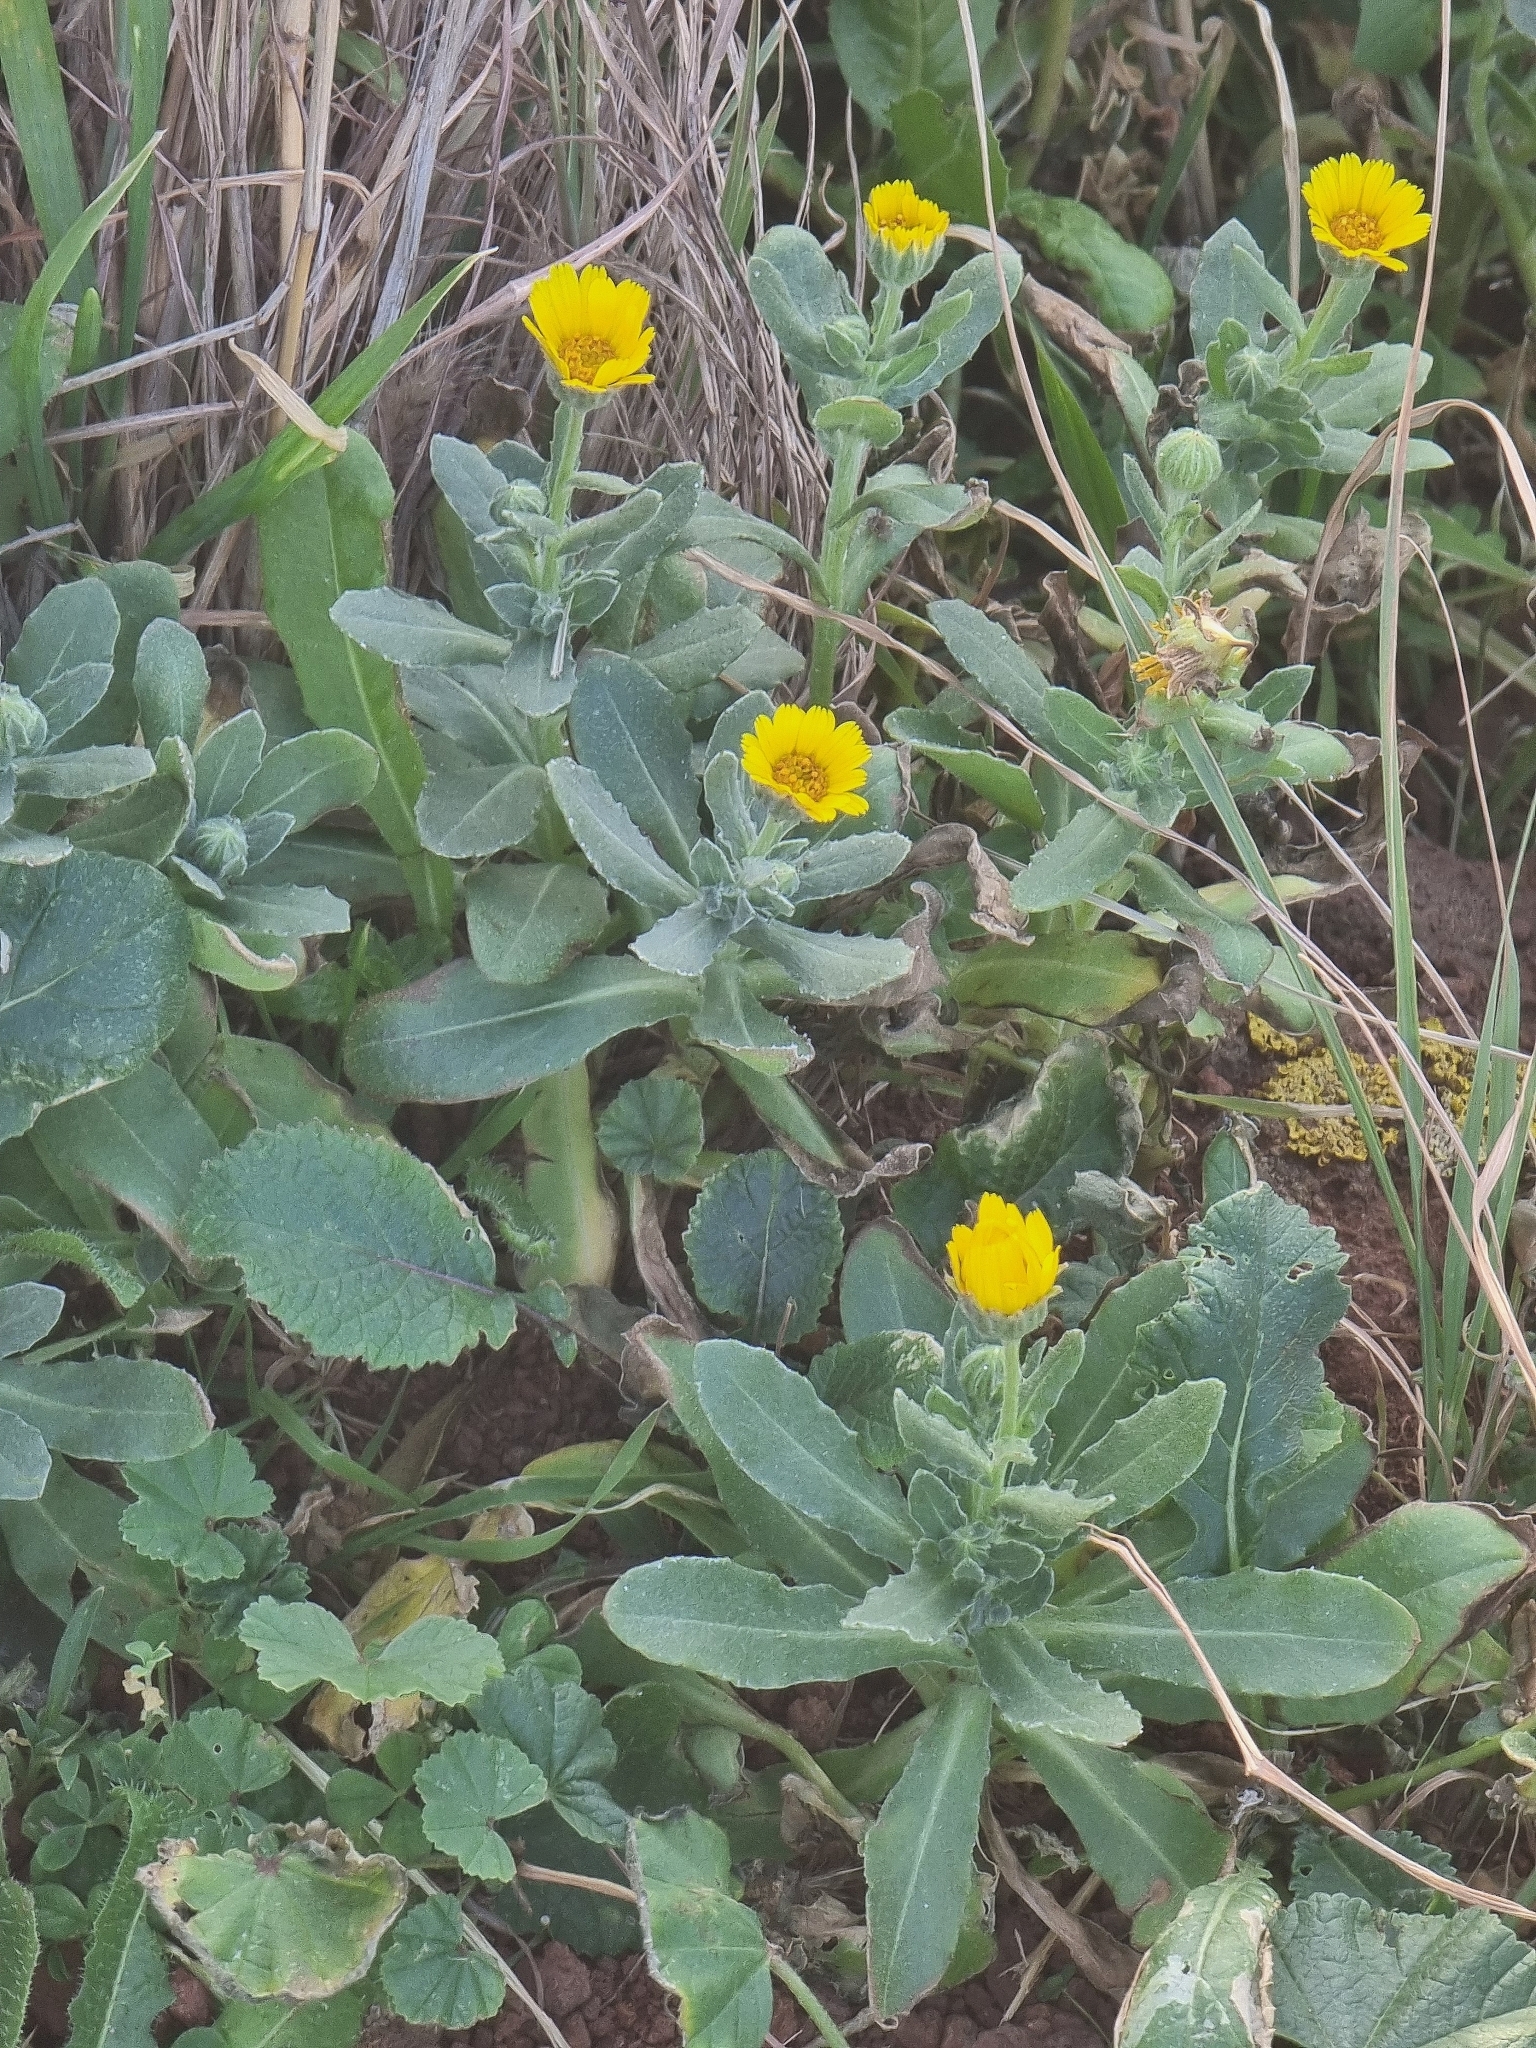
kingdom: Plantae
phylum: Tracheophyta
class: Magnoliopsida
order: Asterales
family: Asteraceae
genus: Calendula
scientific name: Calendula suffruticosa
